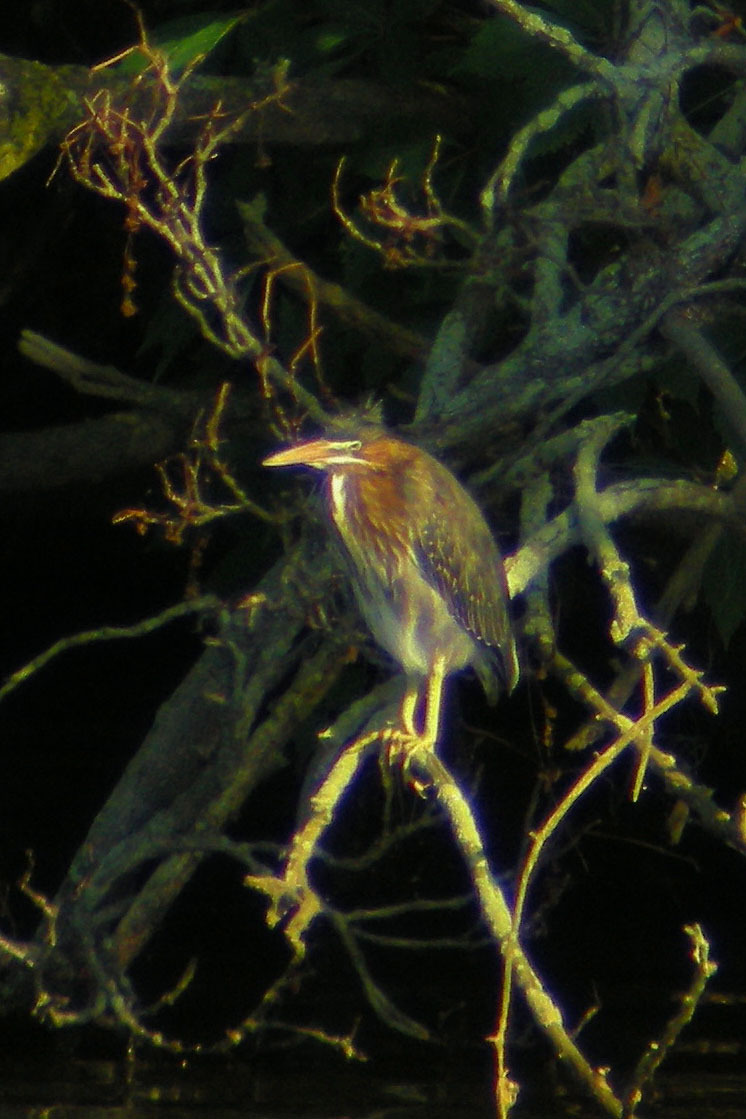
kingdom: Animalia
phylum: Chordata
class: Aves
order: Pelecaniformes
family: Ardeidae
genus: Butorides
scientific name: Butorides virescens
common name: Green heron
